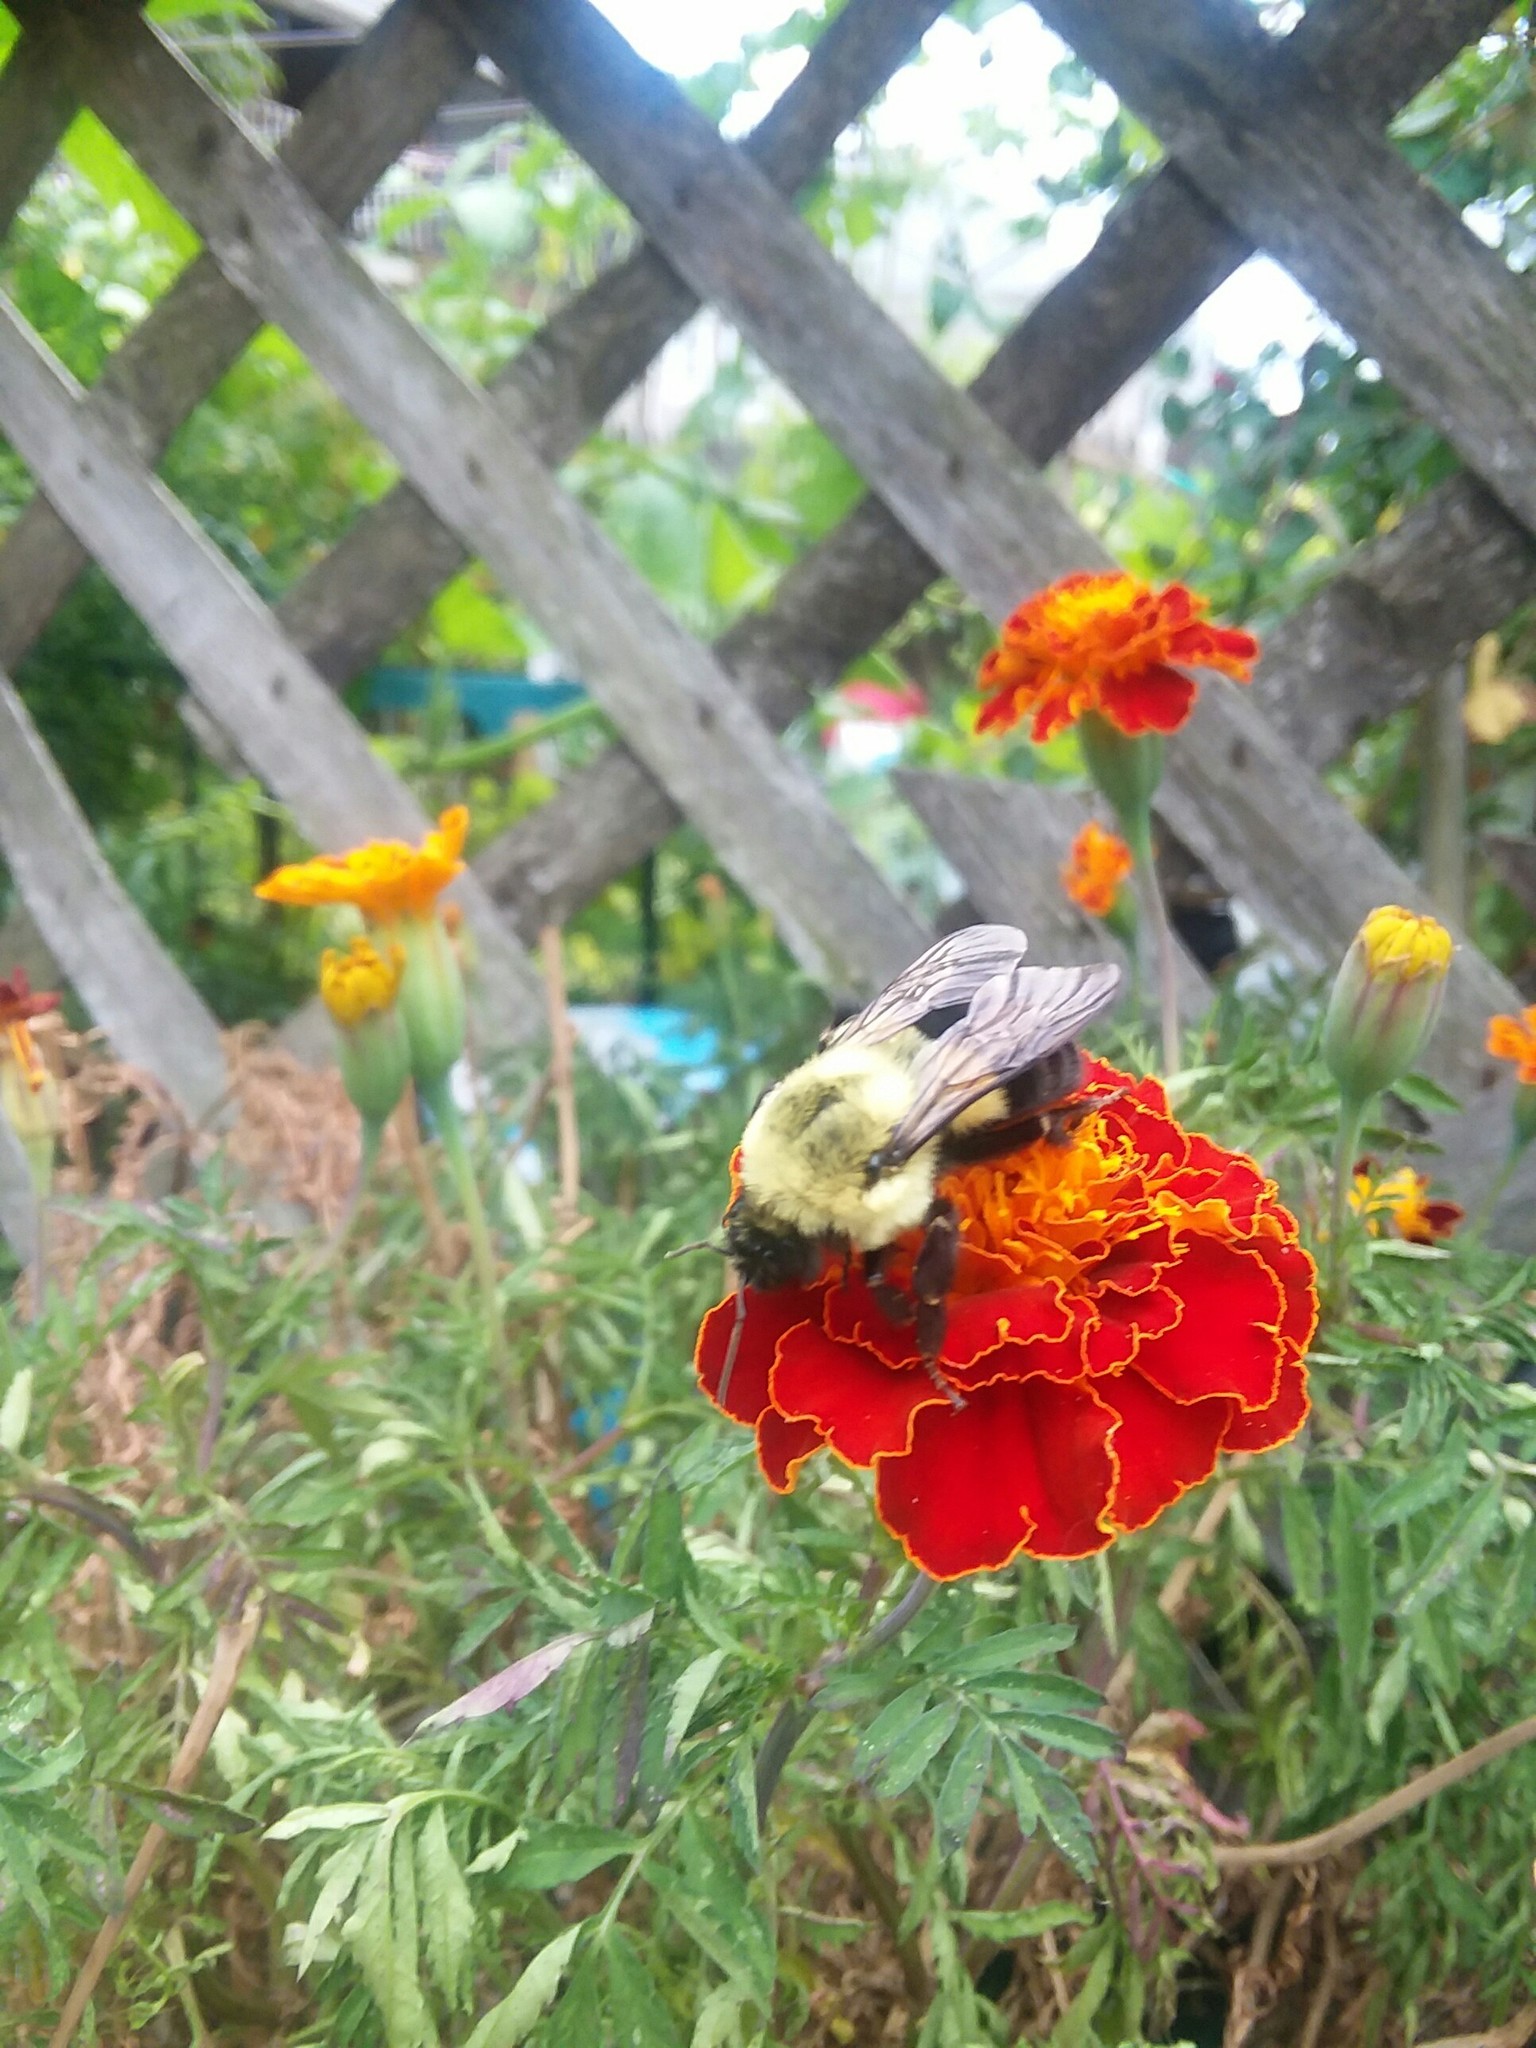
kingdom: Animalia
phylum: Arthropoda
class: Insecta
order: Hymenoptera
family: Apidae
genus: Bombus
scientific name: Bombus impatiens
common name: Common eastern bumble bee
